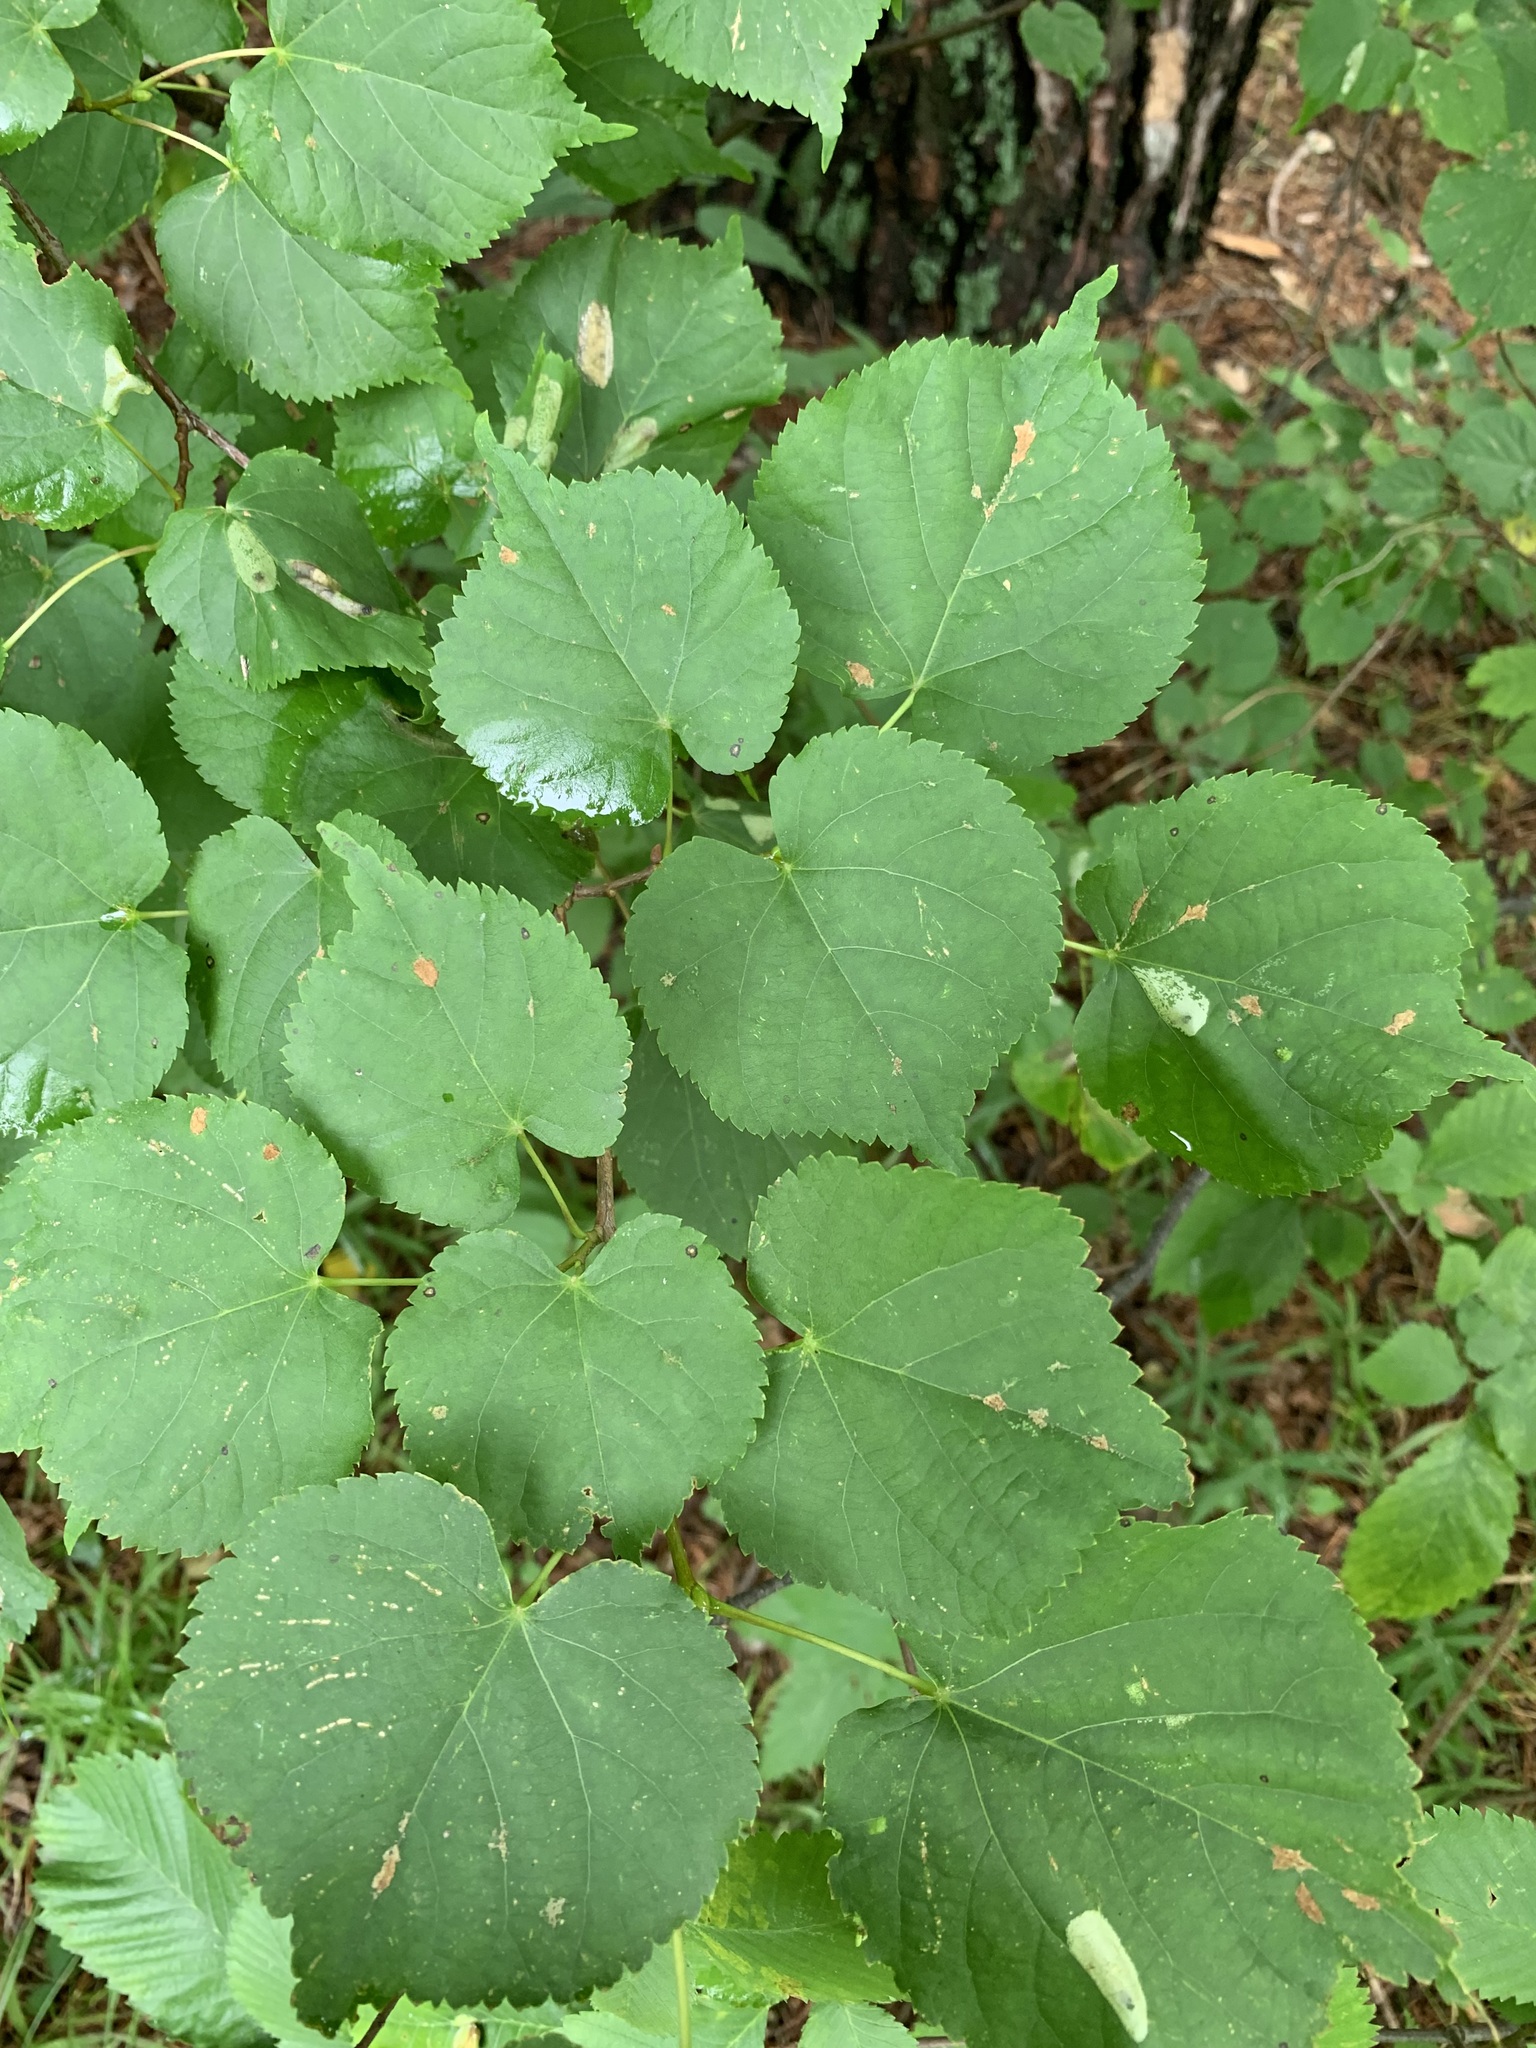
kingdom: Plantae
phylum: Tracheophyta
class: Magnoliopsida
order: Malvales
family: Malvaceae
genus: Tilia
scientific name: Tilia cordata
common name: Small-leaved lime
